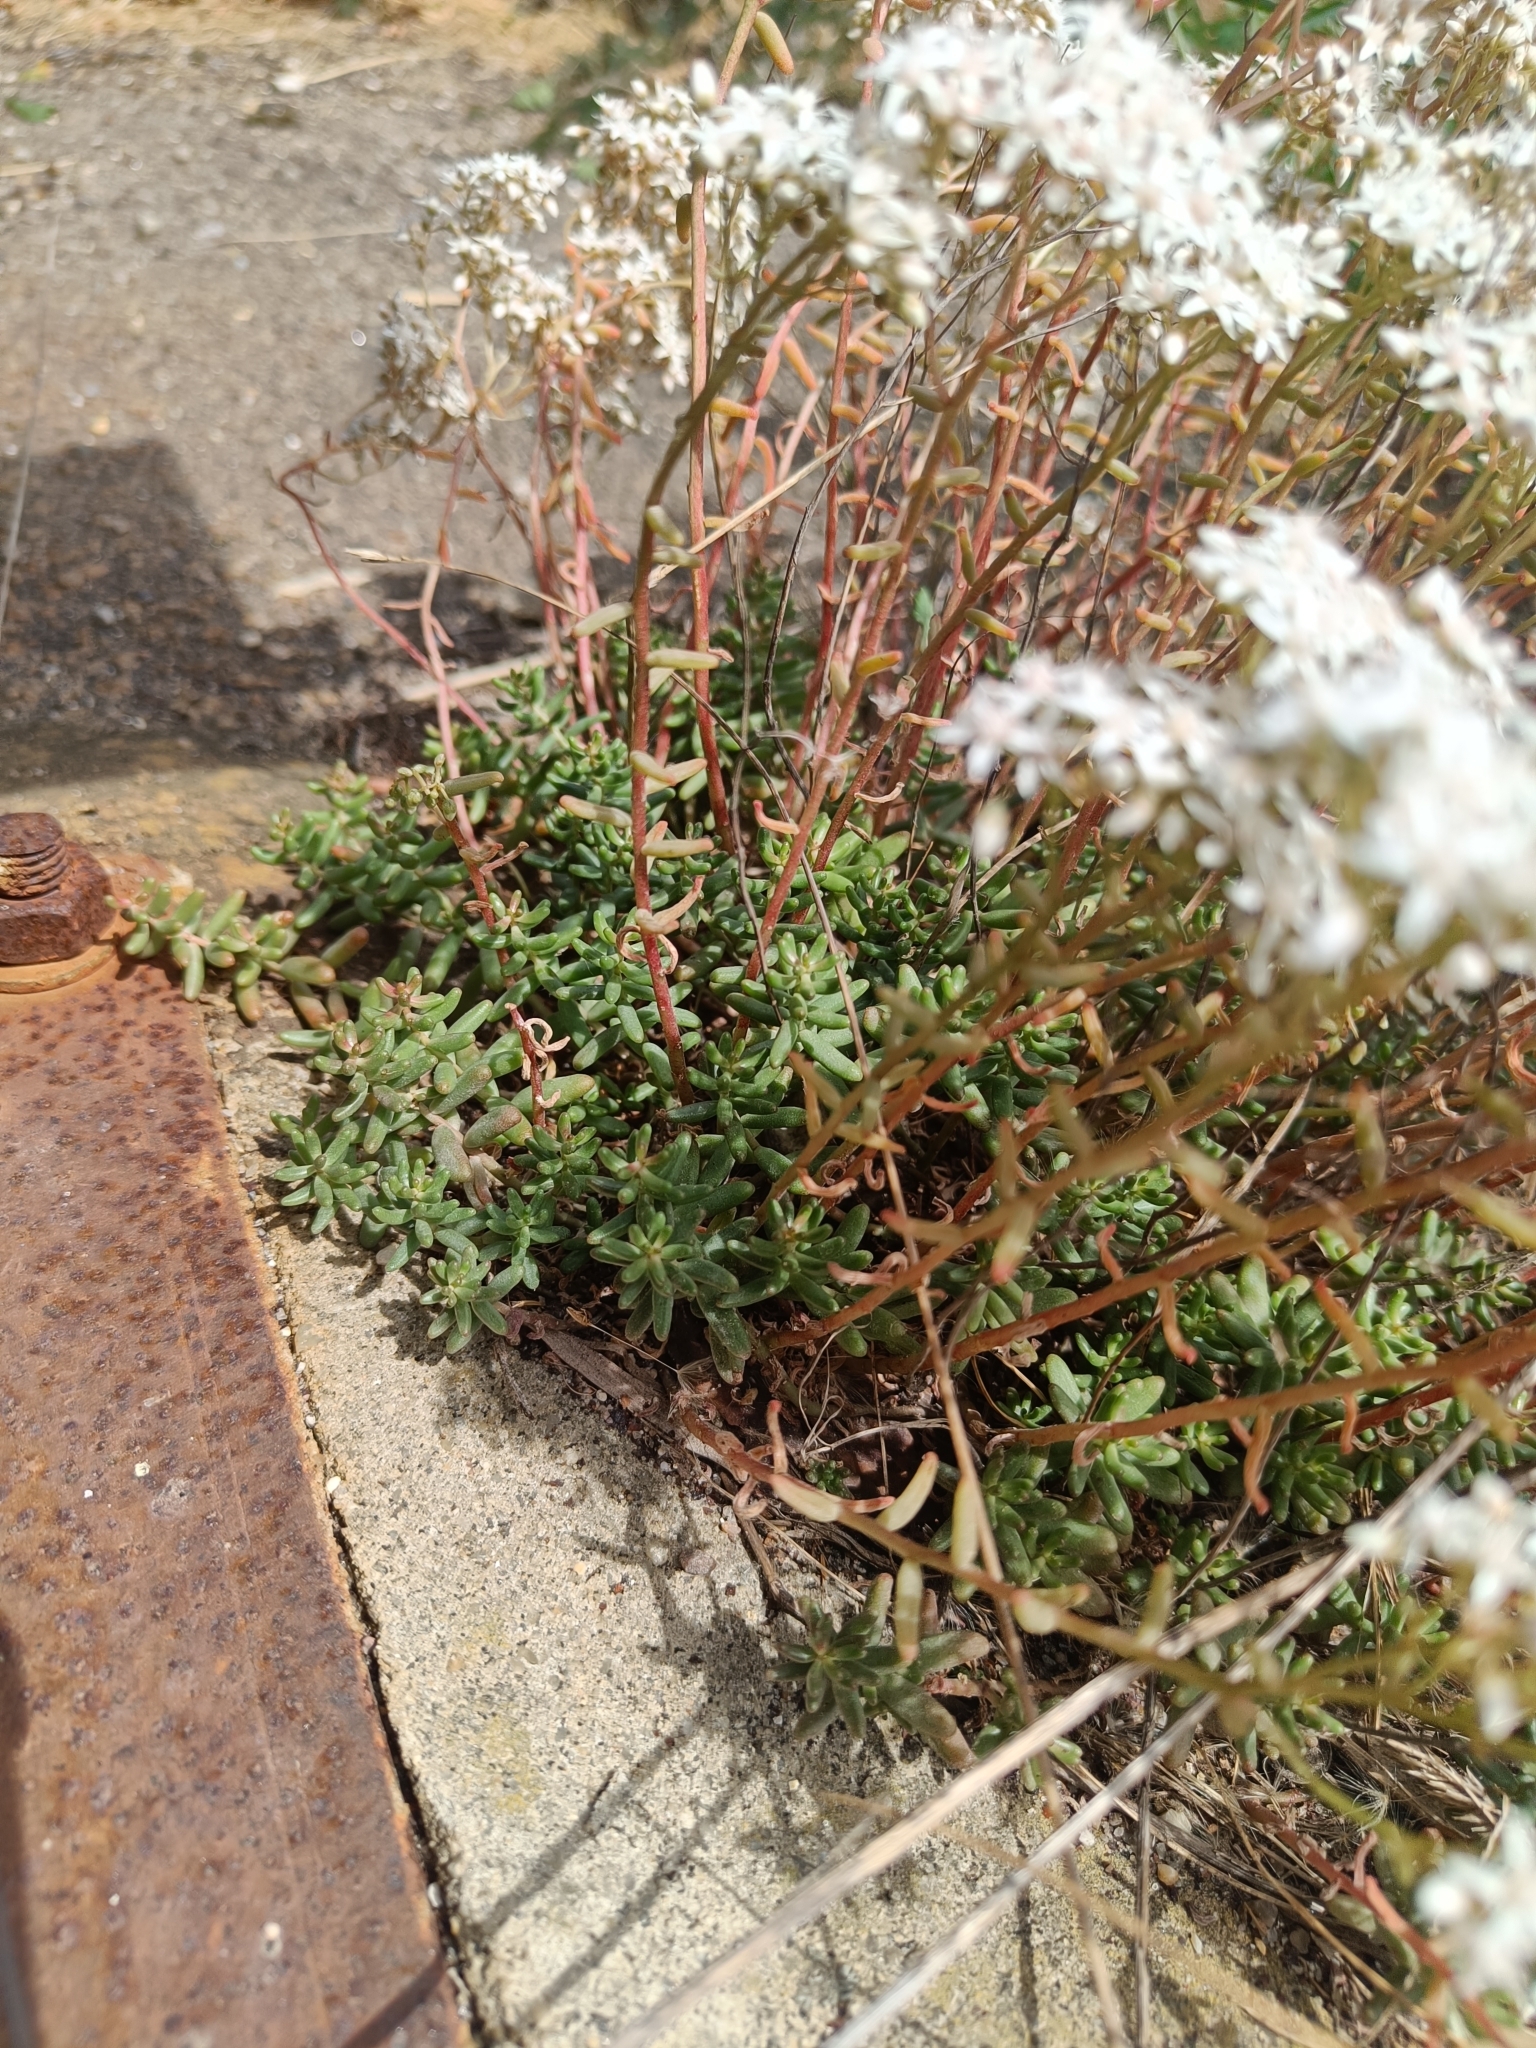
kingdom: Plantae
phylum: Tracheophyta
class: Magnoliopsida
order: Saxifragales
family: Crassulaceae
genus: Sedum
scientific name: Sedum album
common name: White stonecrop
